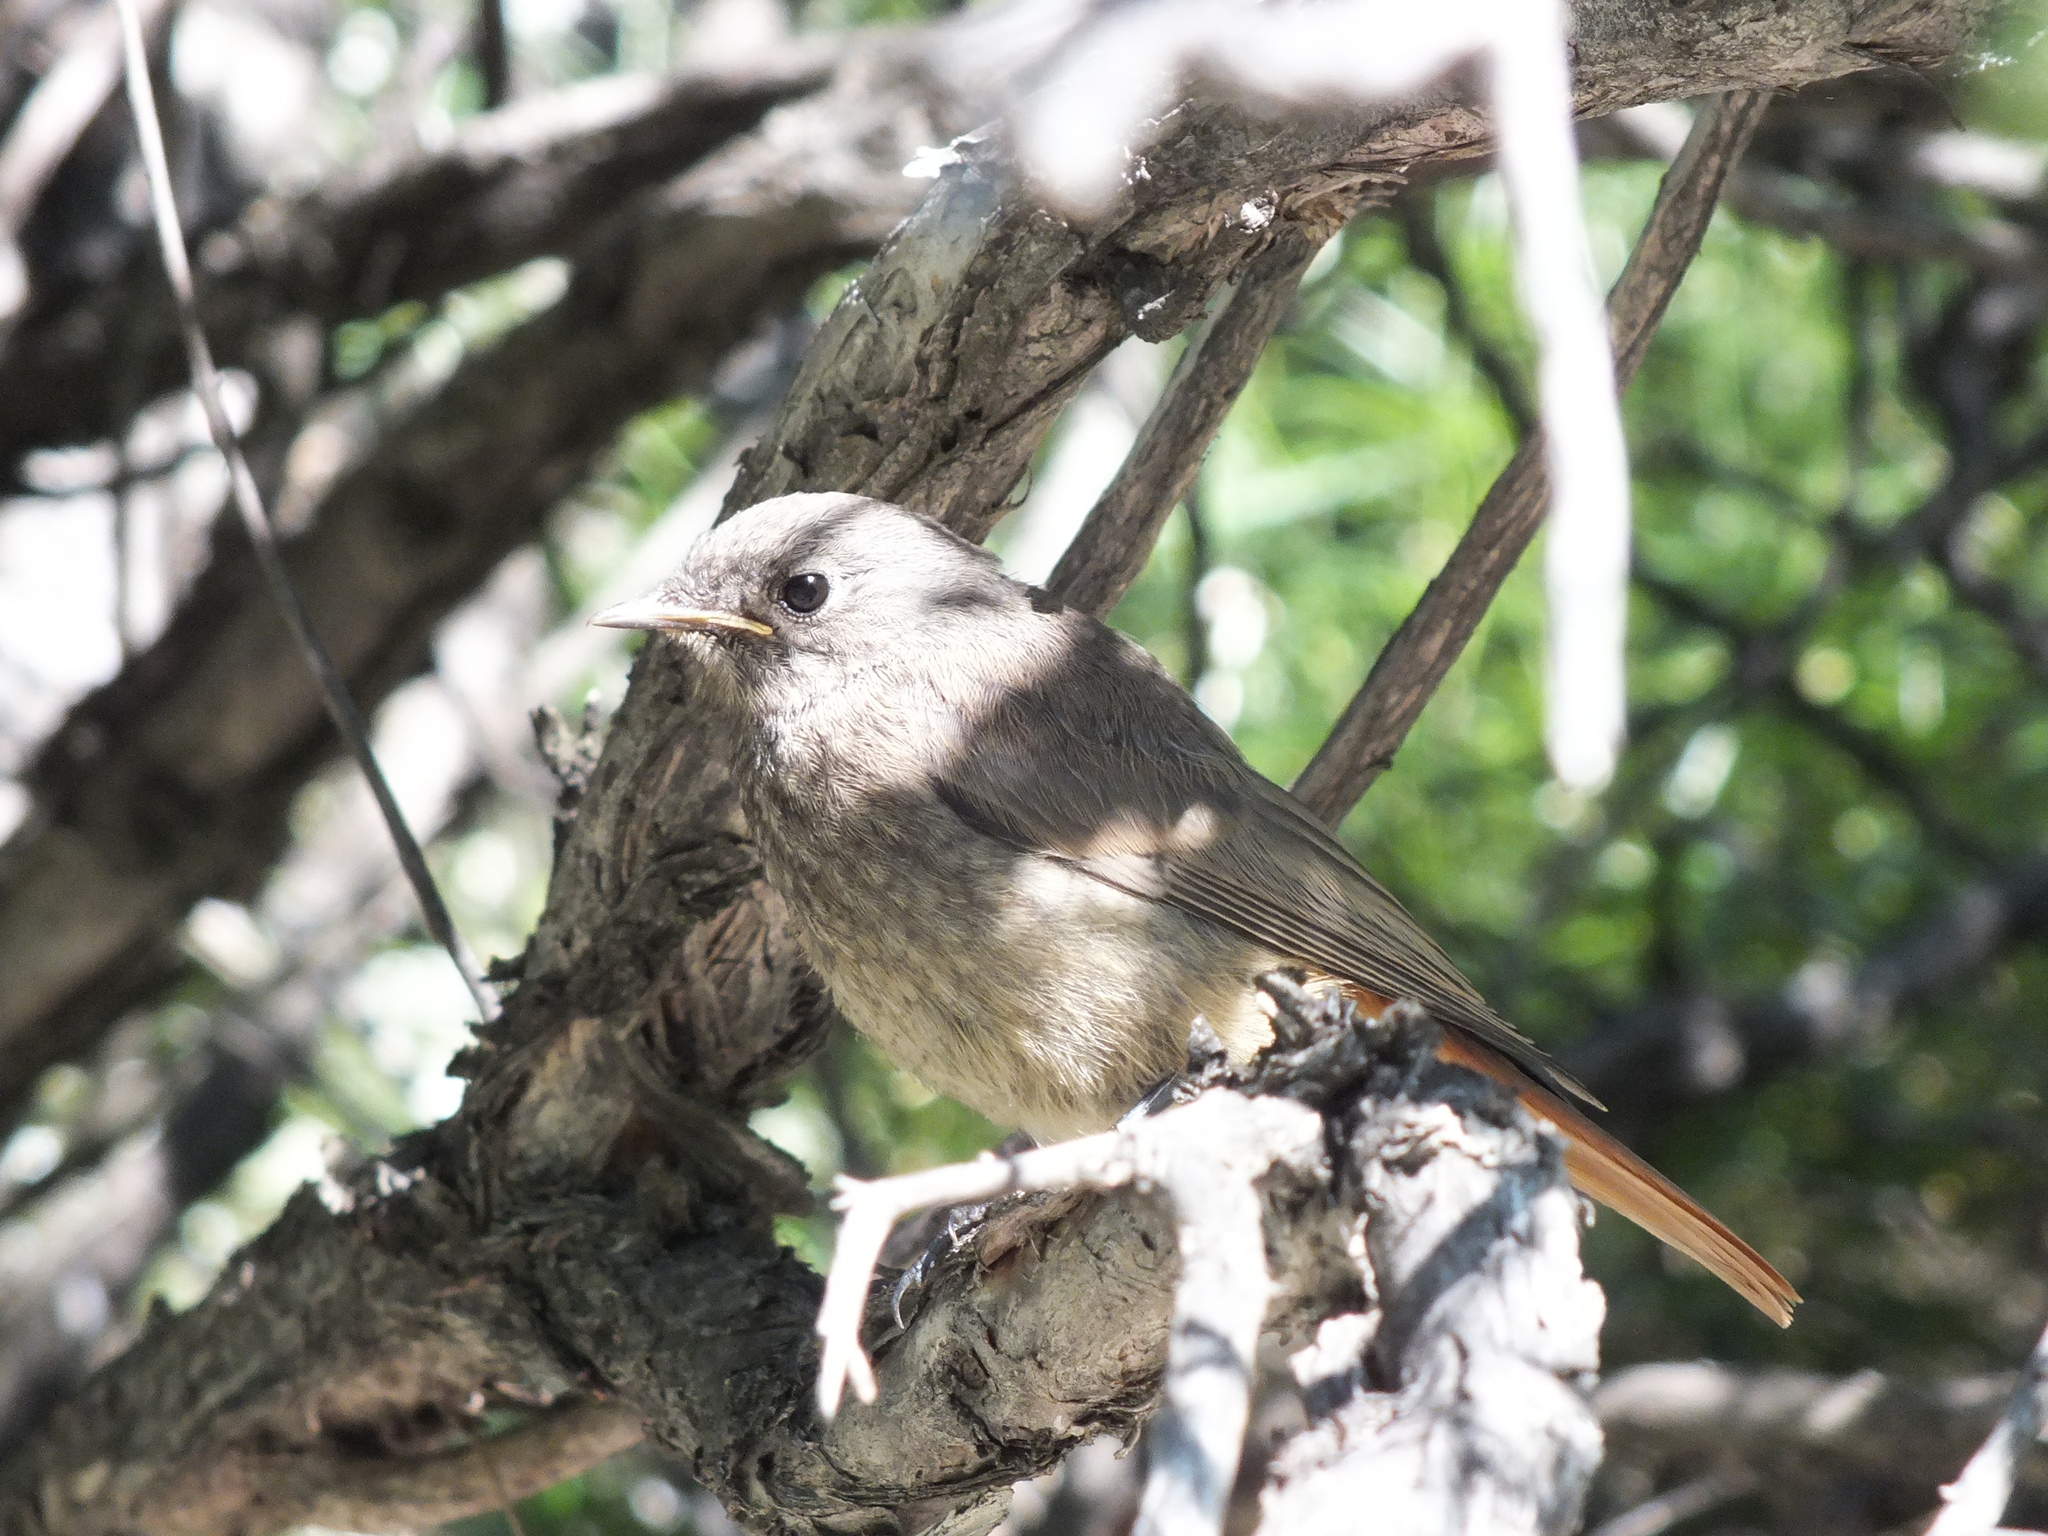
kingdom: Animalia
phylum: Chordata
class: Aves
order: Passeriformes
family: Muscicapidae
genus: Phoenicurus
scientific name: Phoenicurus ochruros
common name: Black redstart
